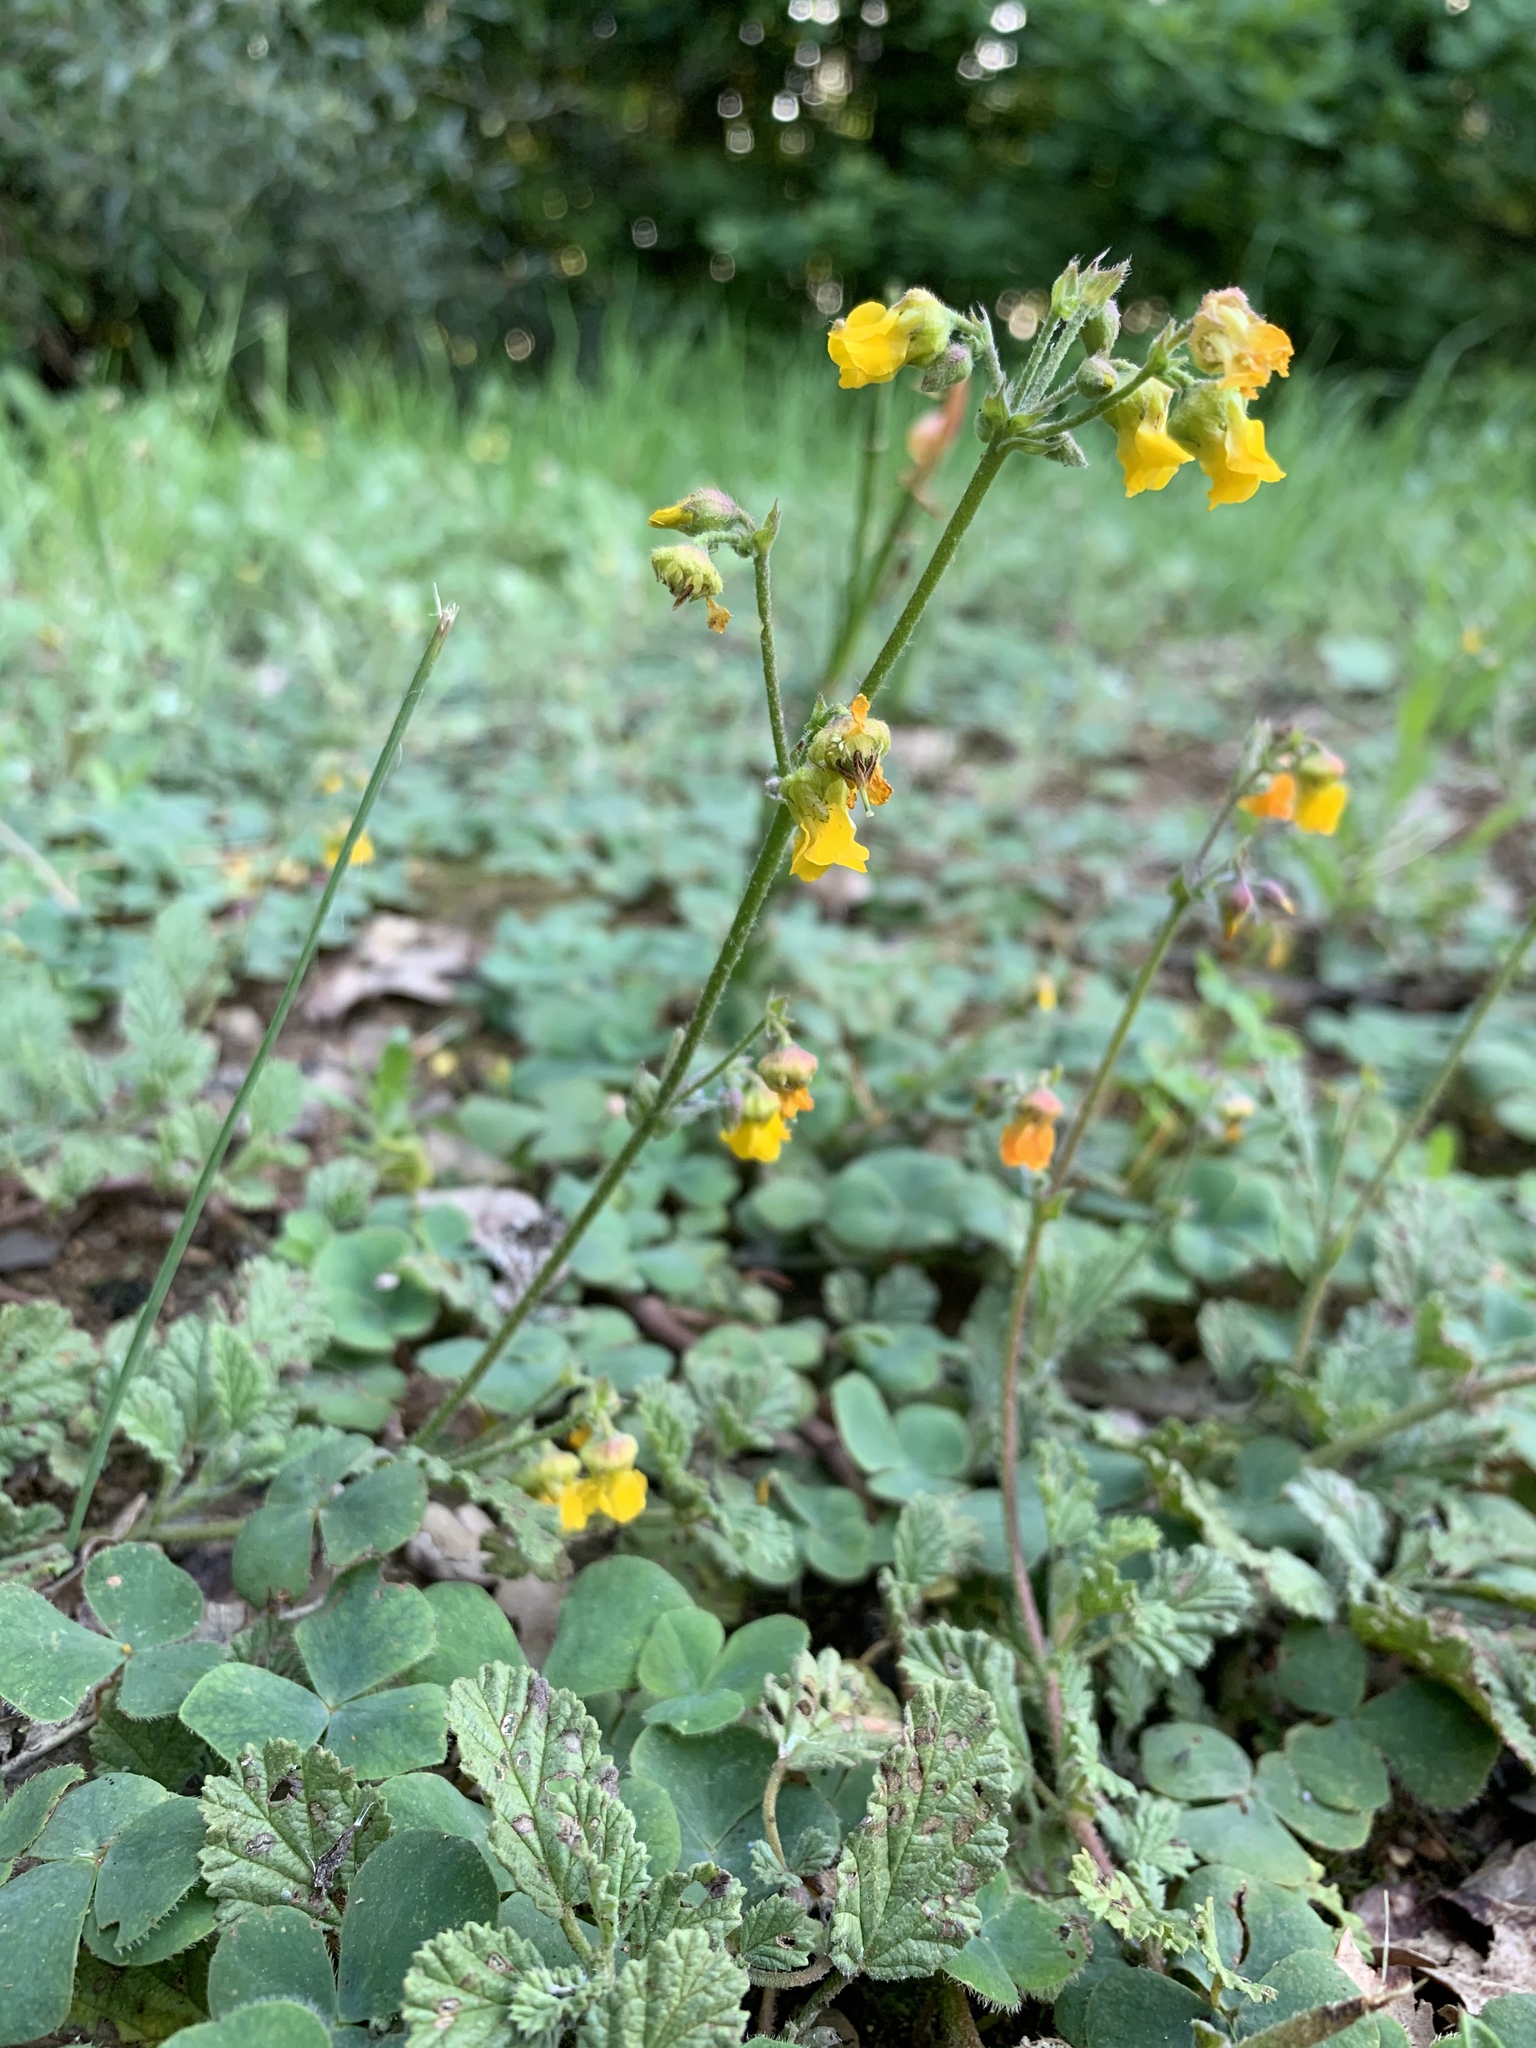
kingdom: Plantae
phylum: Tracheophyta
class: Magnoliopsida
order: Malvales
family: Malvaceae
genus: Hermannia
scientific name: Hermannia prismatocarpa
